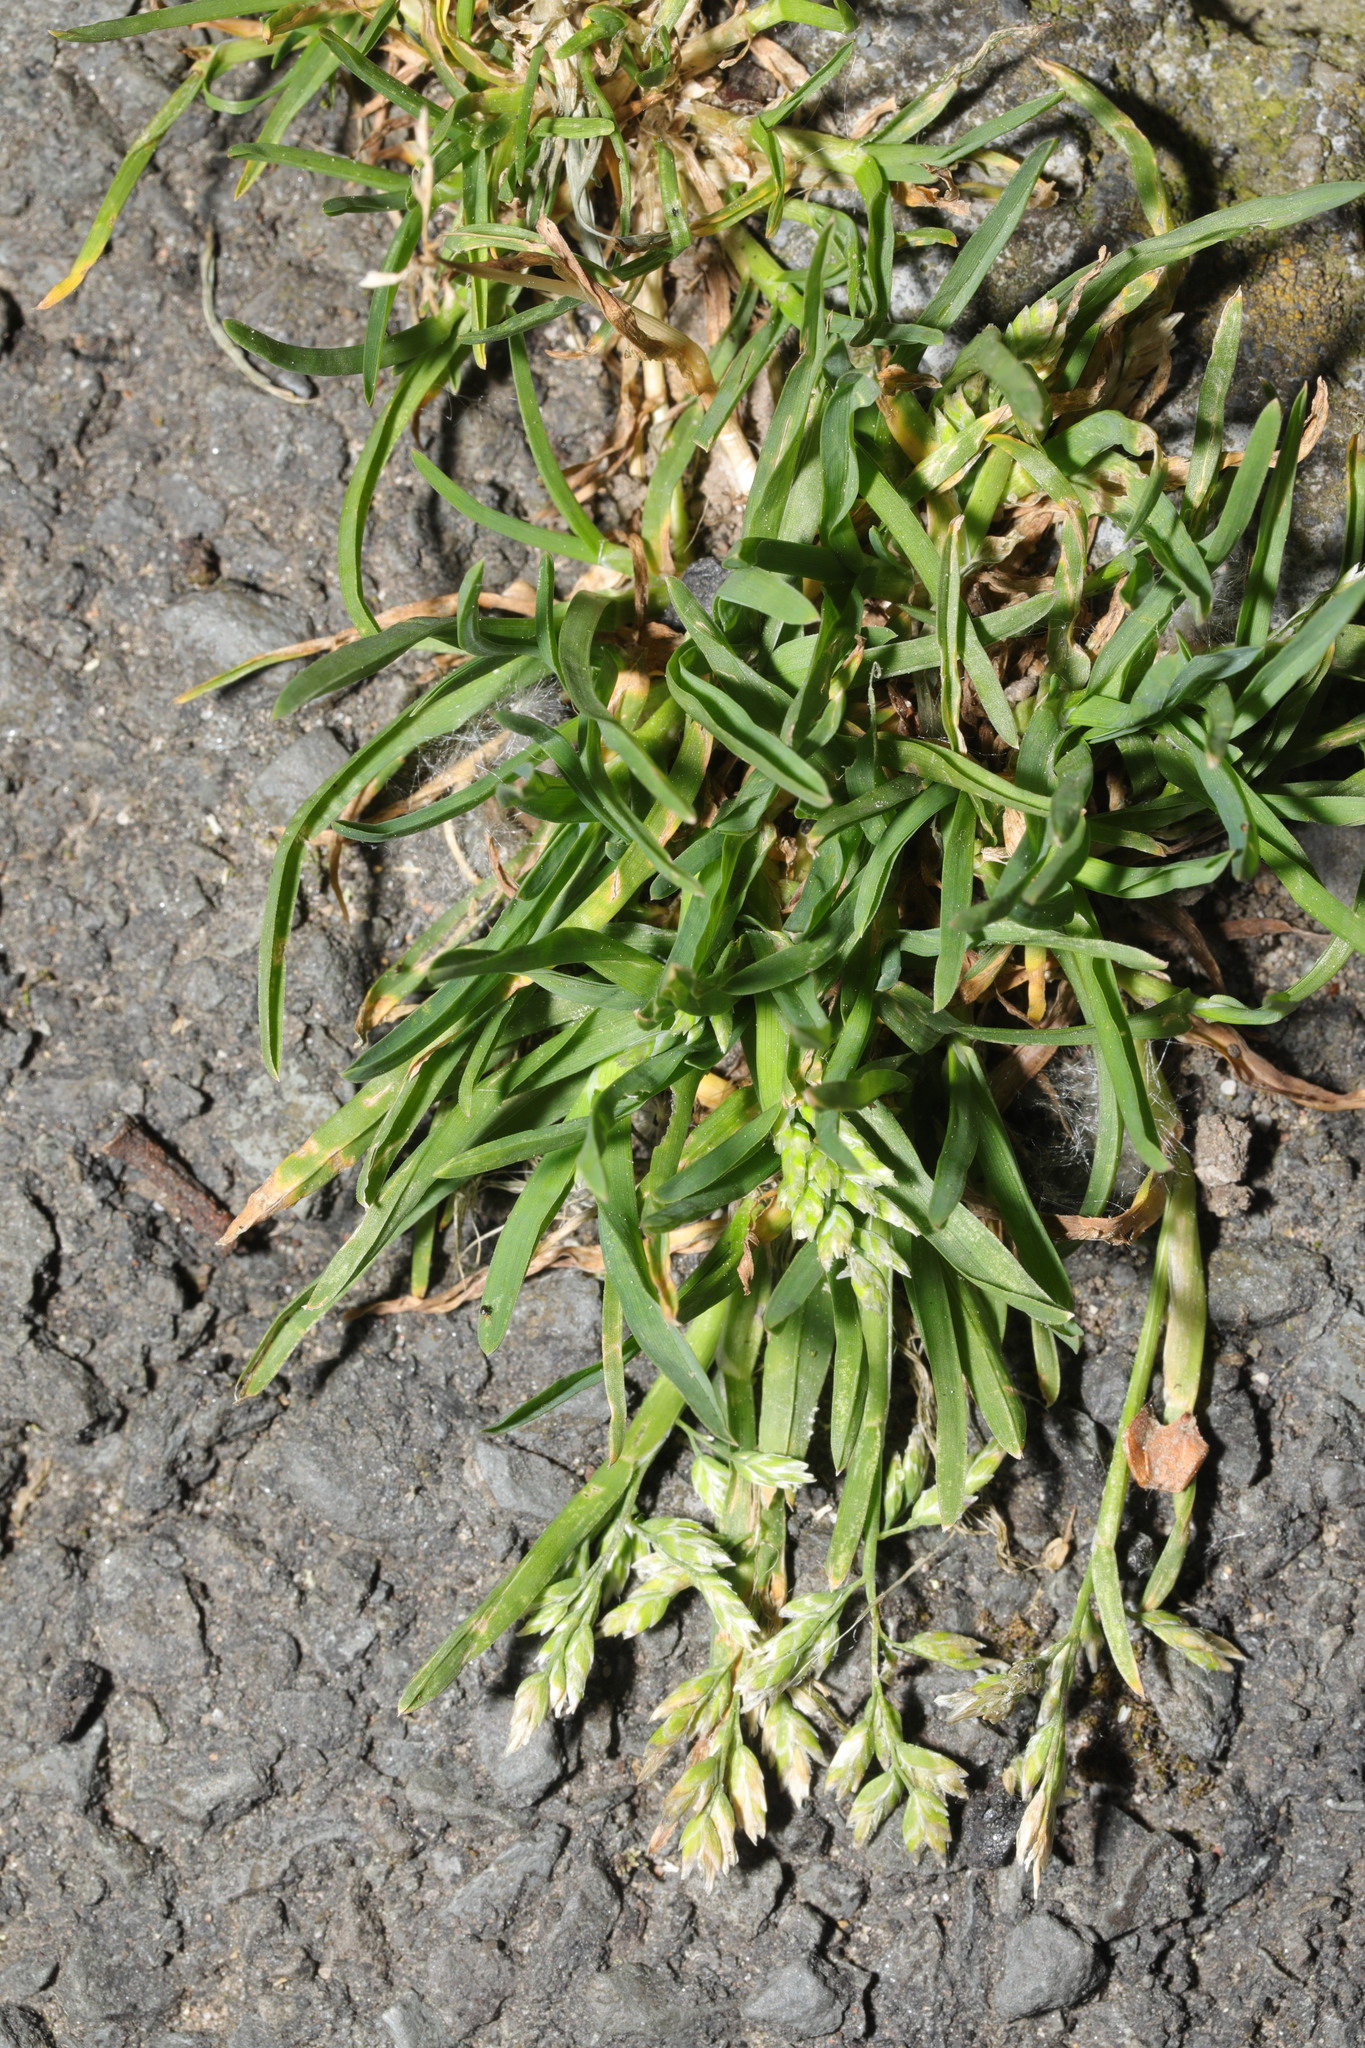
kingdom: Plantae
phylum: Tracheophyta
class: Liliopsida
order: Poales
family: Poaceae
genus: Poa
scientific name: Poa annua
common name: Annual bluegrass
